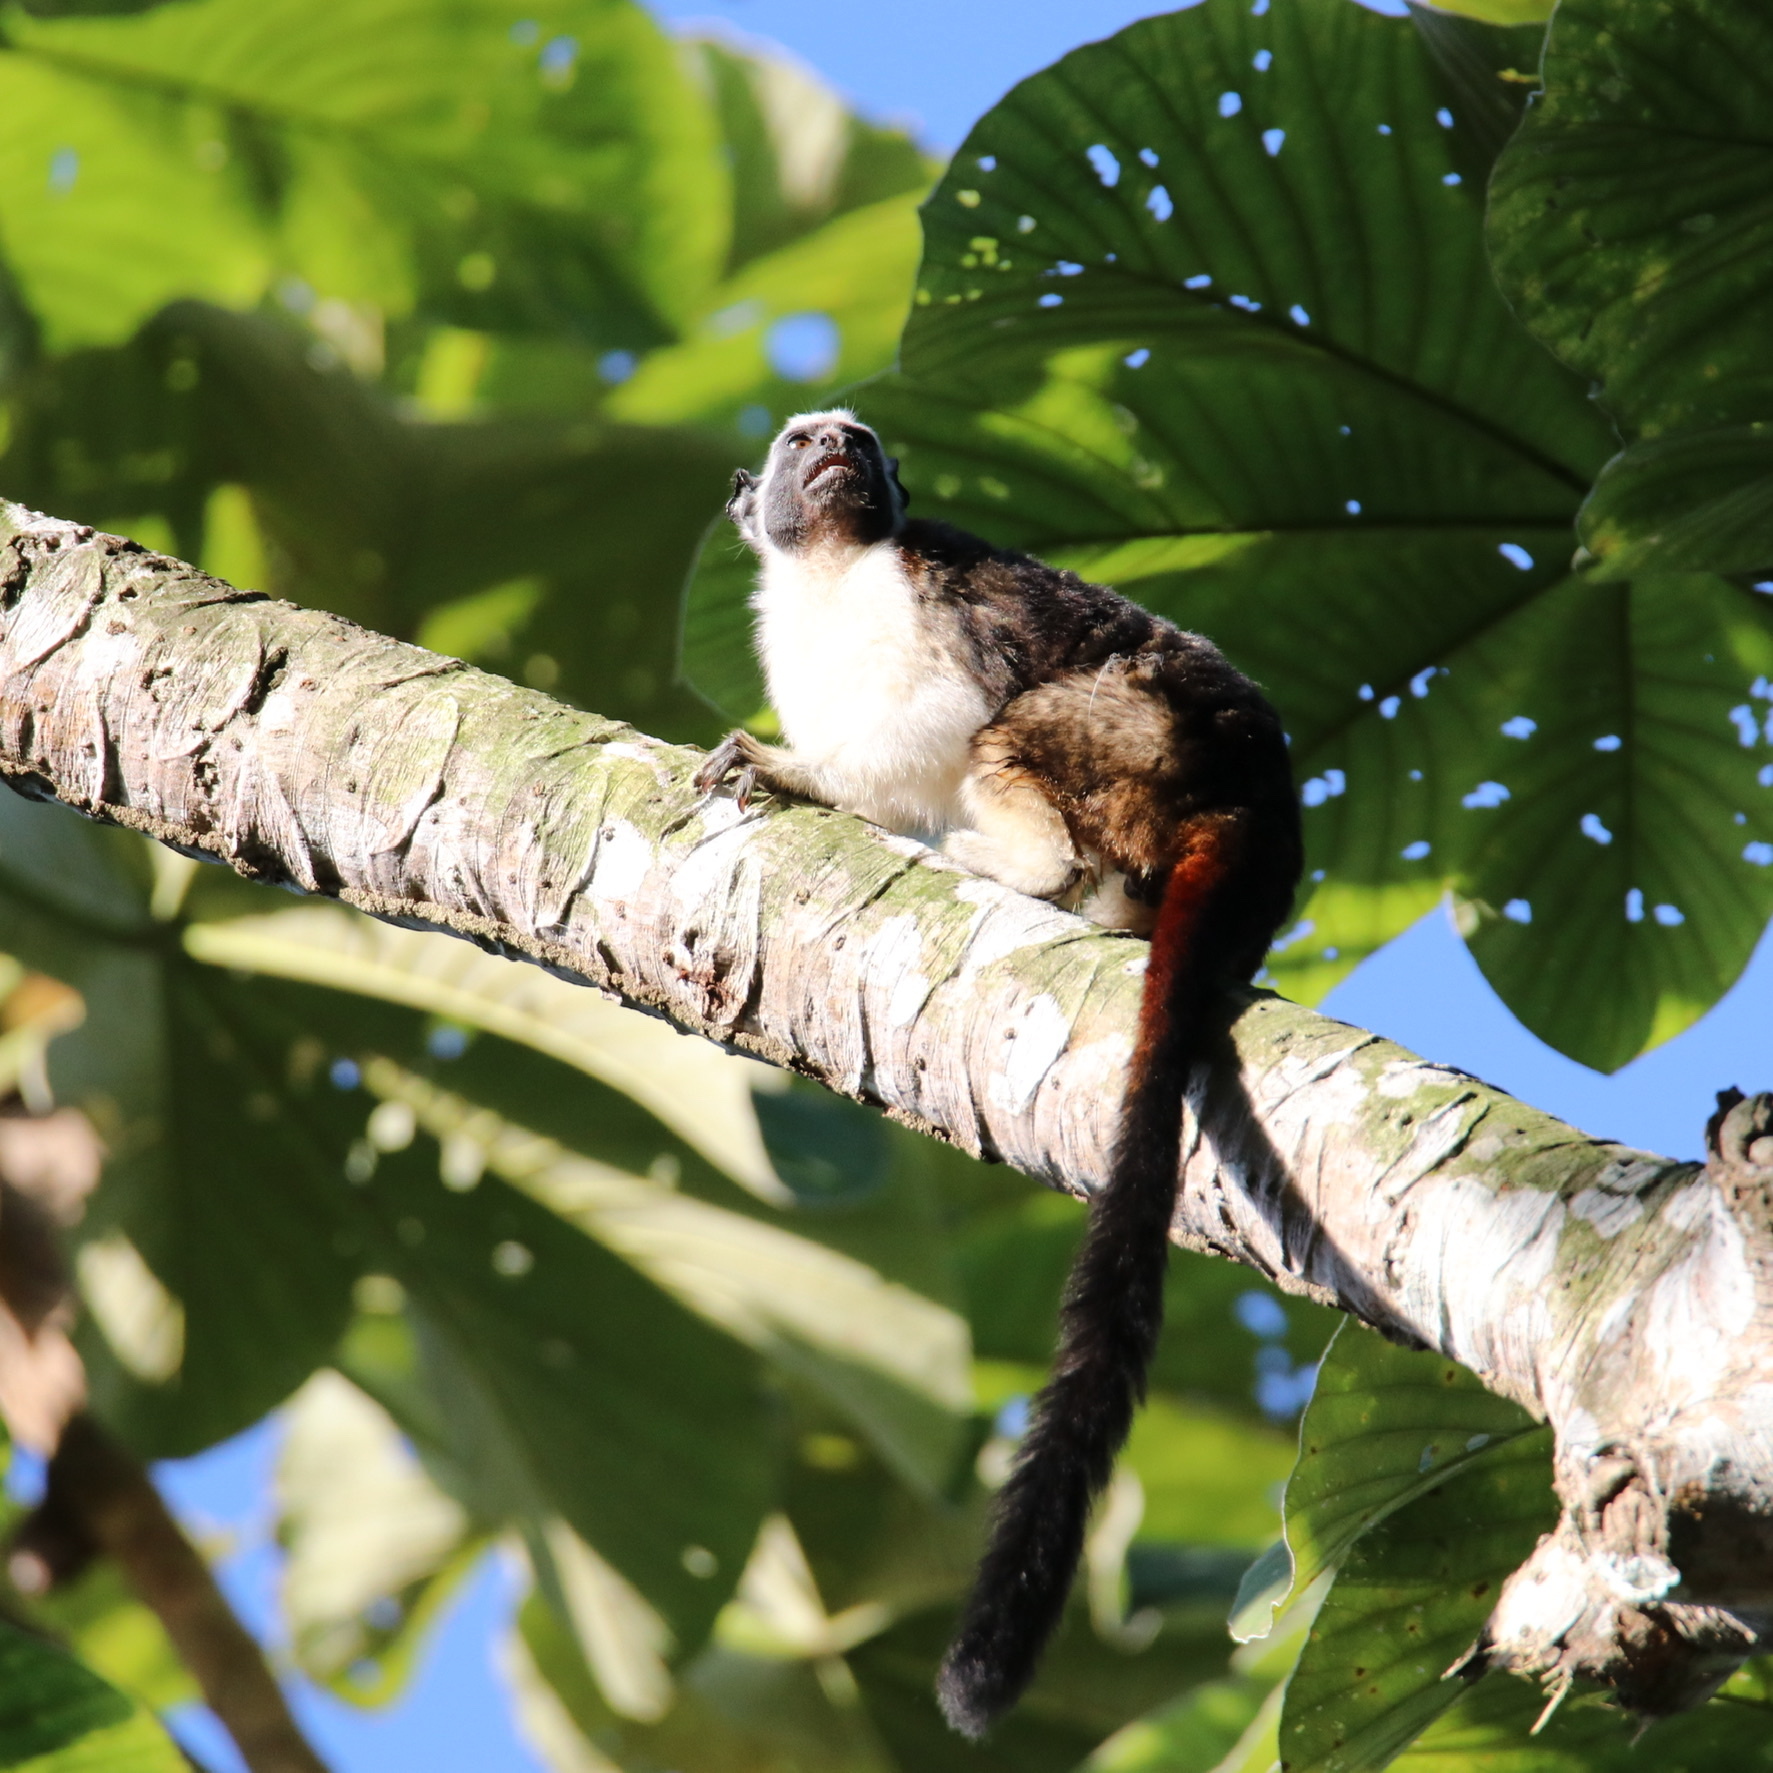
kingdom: Animalia
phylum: Chordata
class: Mammalia
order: Primates
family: Callitrichidae
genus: Saguinus
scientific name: Saguinus geoffroyi
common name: Geoffroy s tamarin
